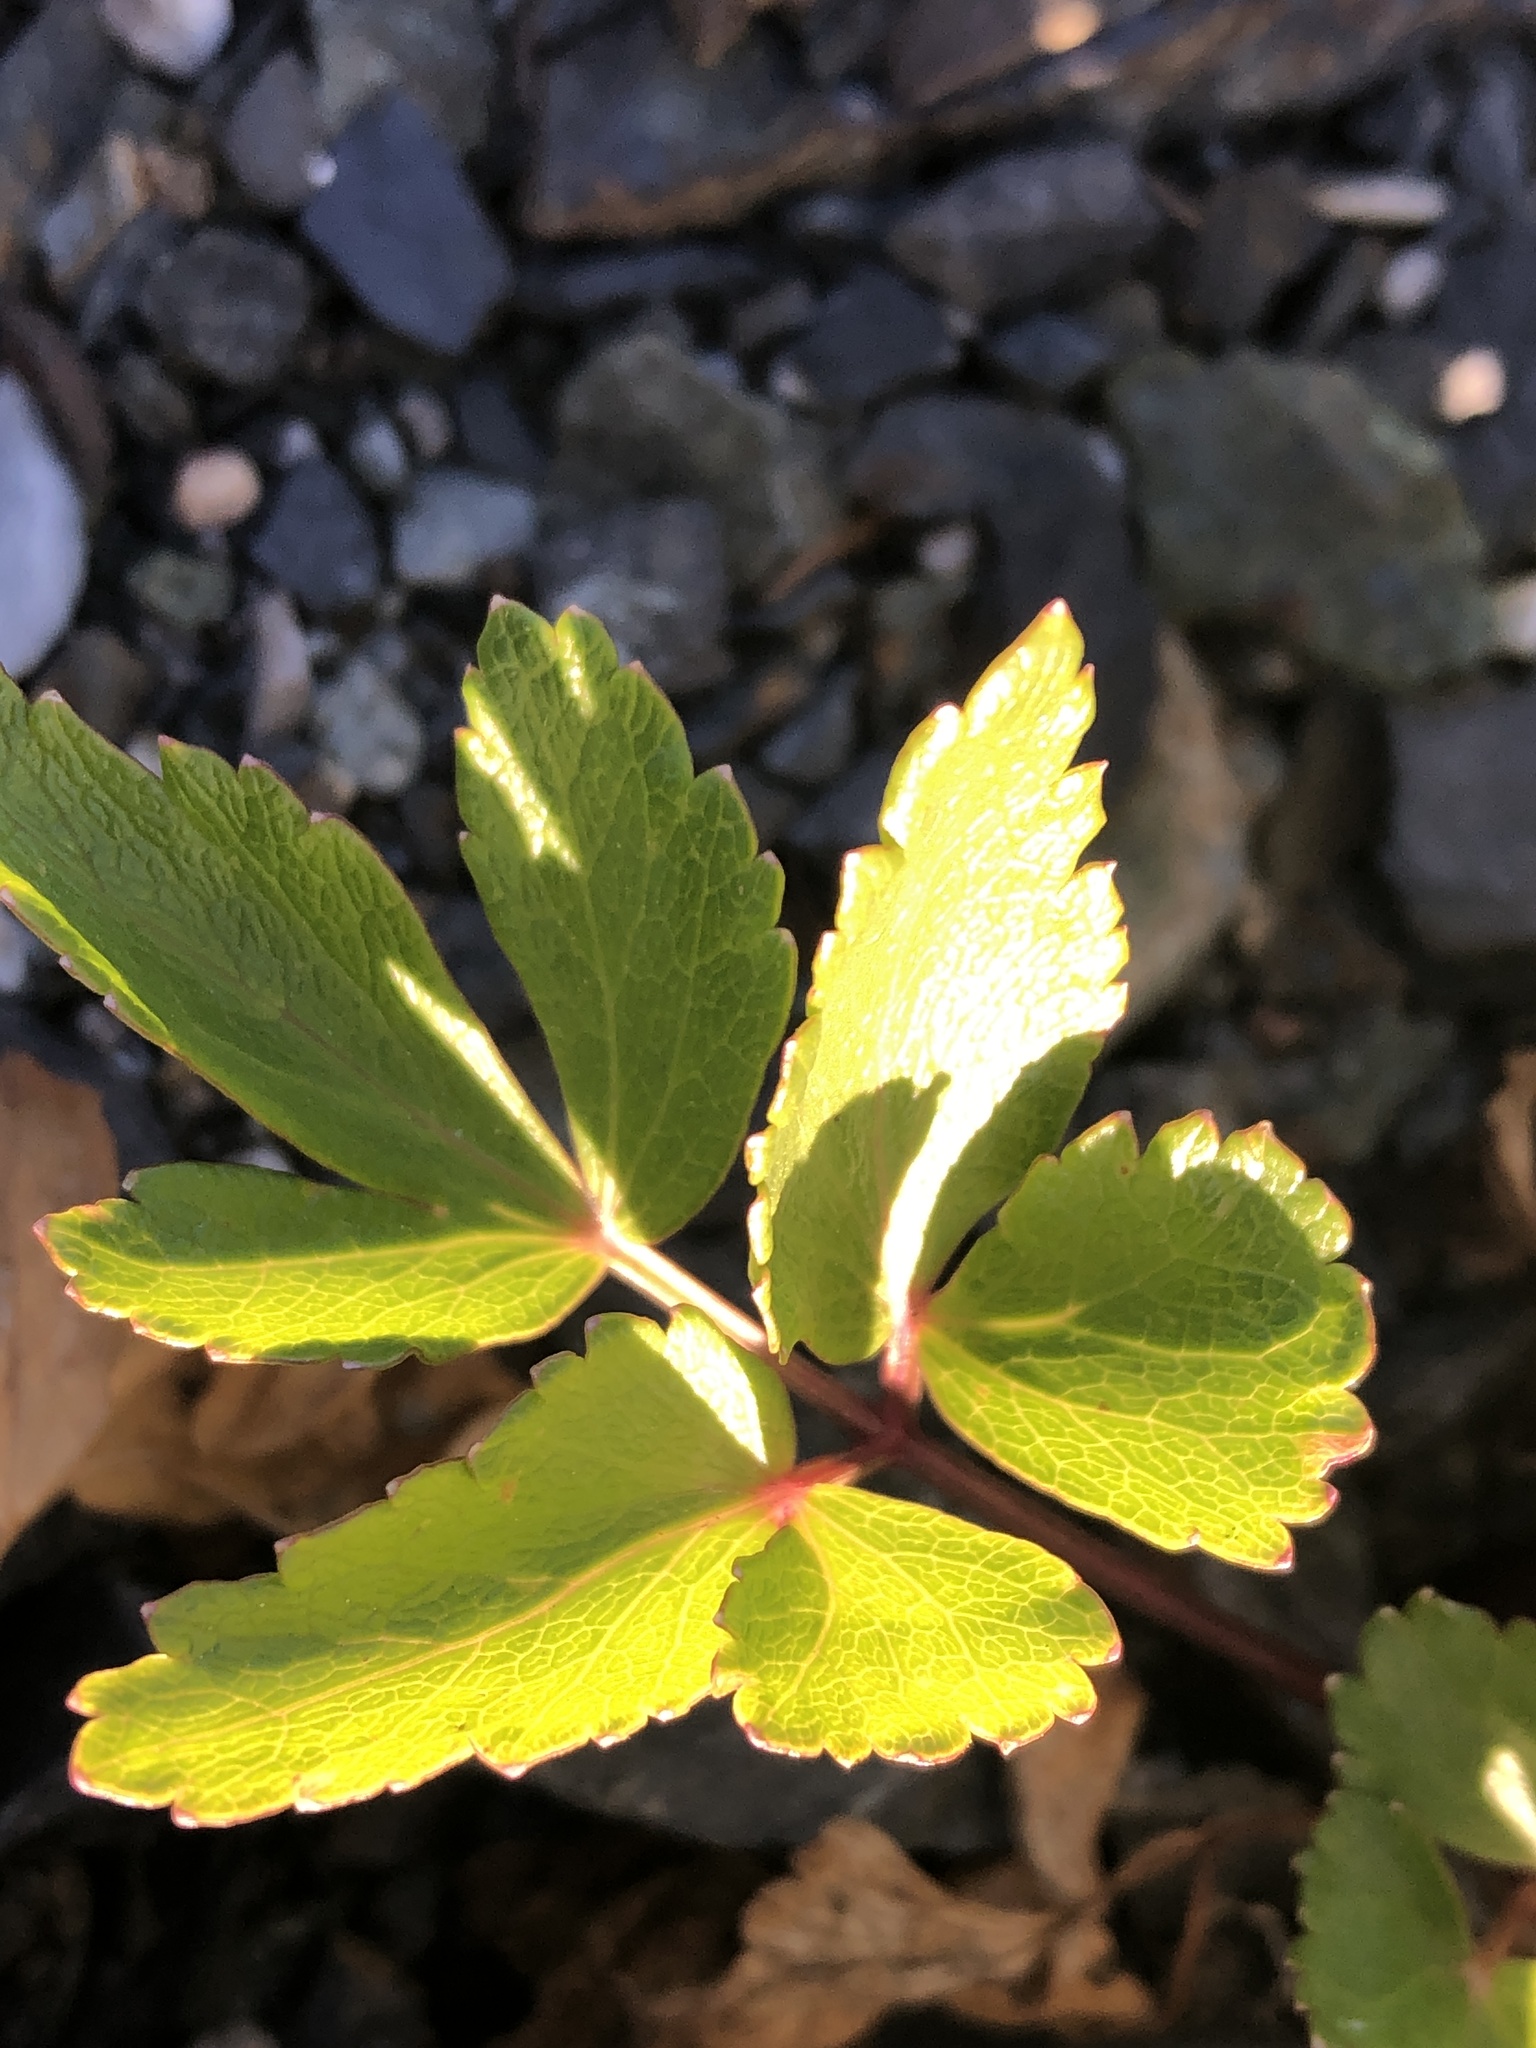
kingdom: Plantae
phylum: Tracheophyta
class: Magnoliopsida
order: Apiales
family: Apiaceae
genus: Ligusticum
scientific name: Ligusticum scothicum
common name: Beach lovage
